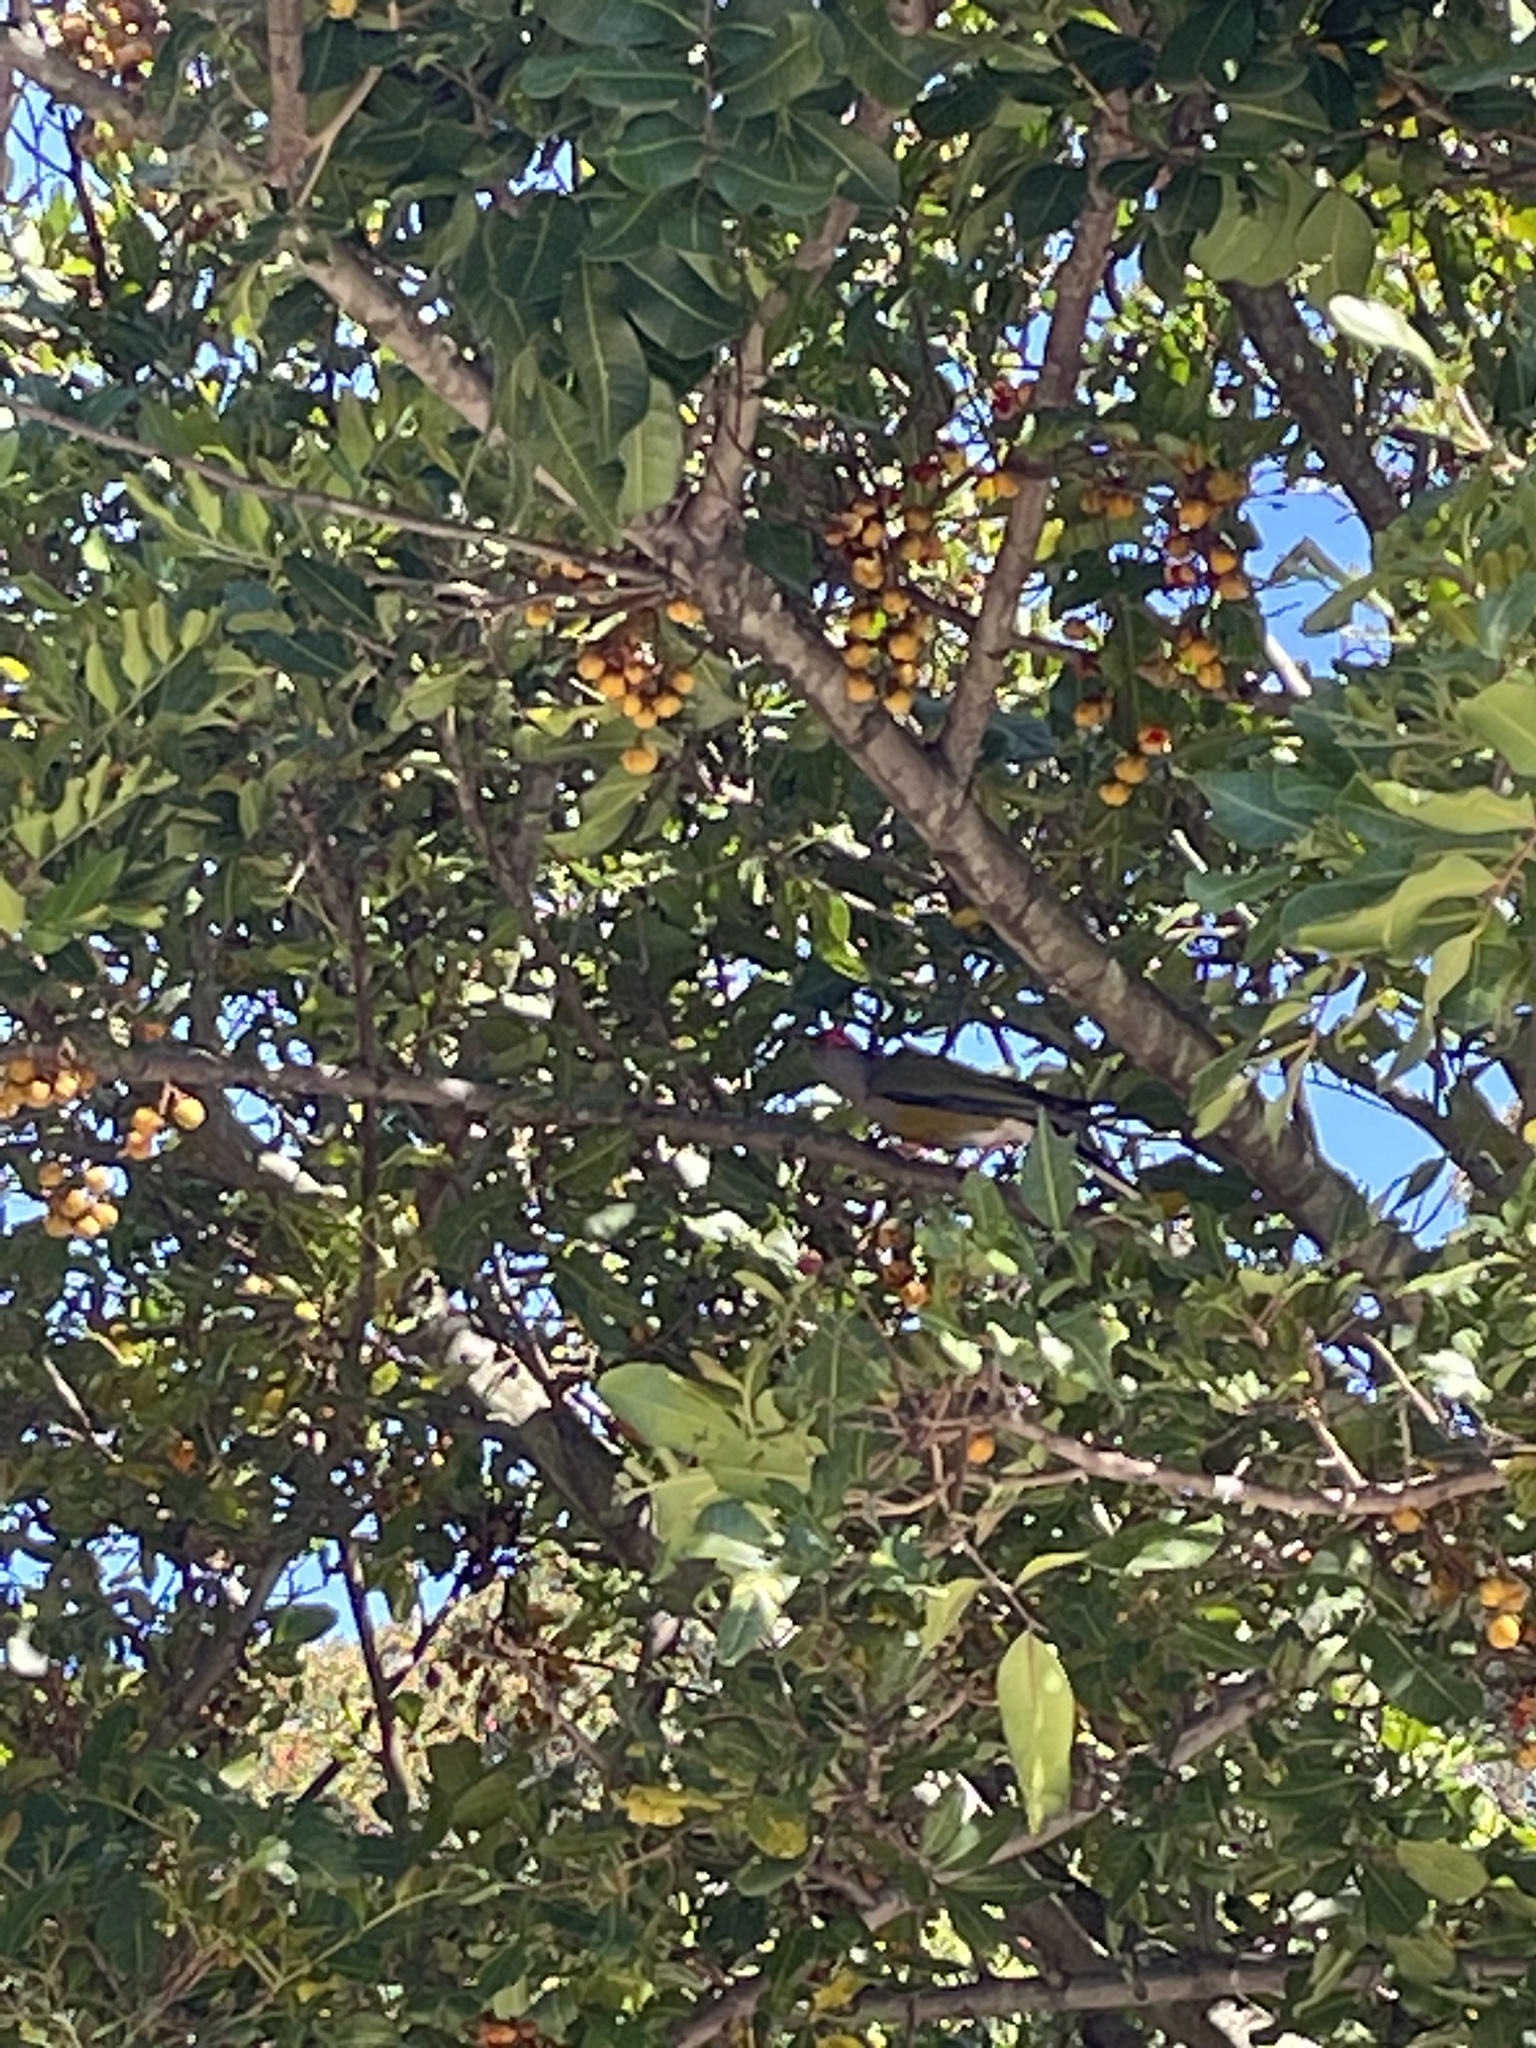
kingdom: Animalia
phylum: Chordata
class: Aves
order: Passeriformes
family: Oriolidae
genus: Sphecotheres
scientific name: Sphecotheres vieilloti
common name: Australasian figbird
